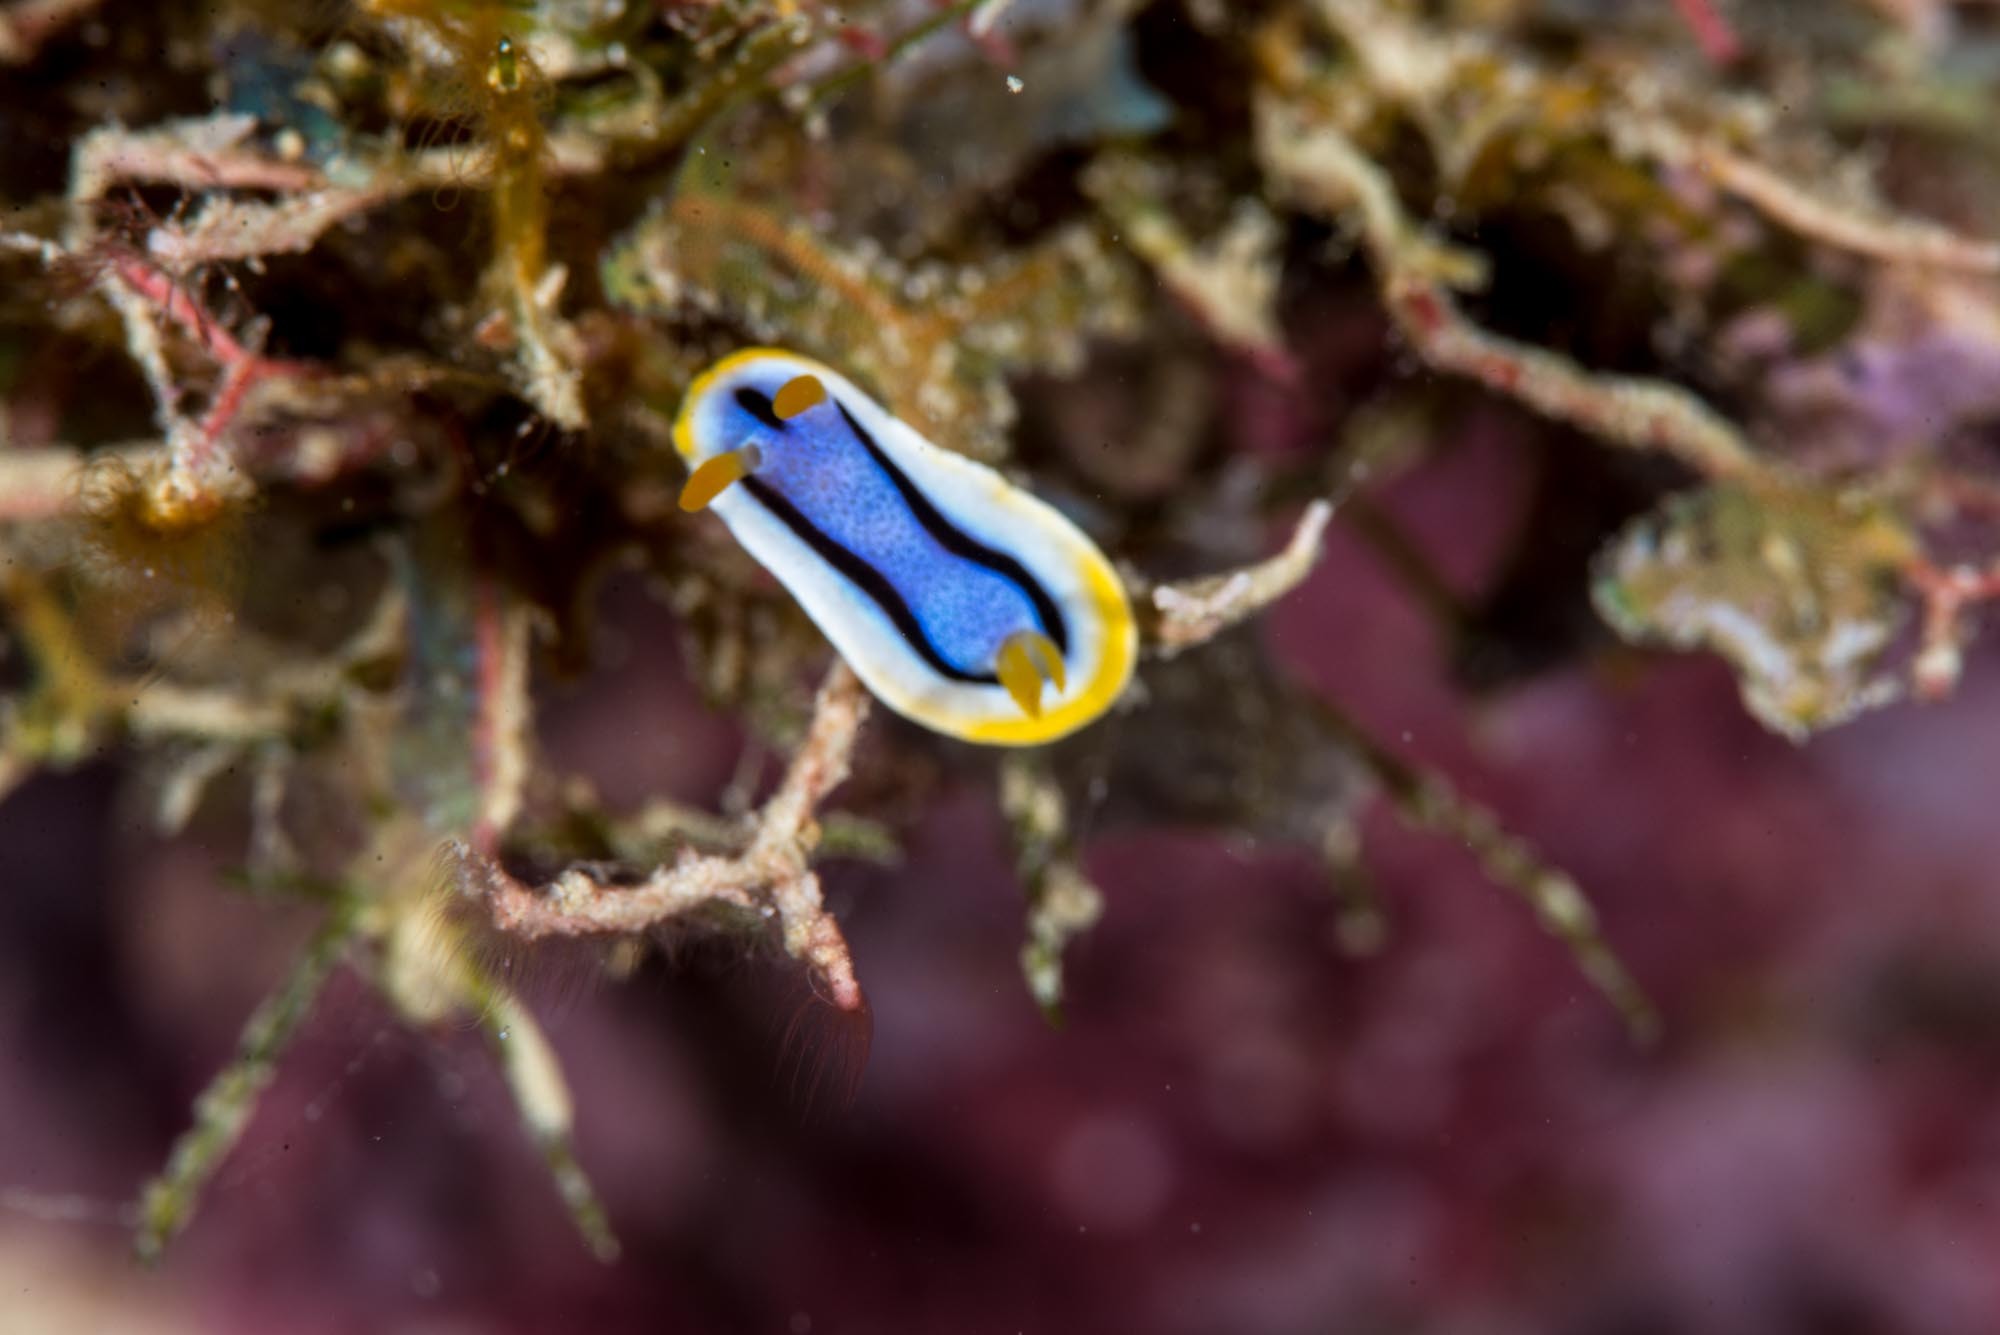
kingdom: Animalia
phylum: Mollusca
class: Gastropoda
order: Nudibranchia
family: Chromodorididae
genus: Chromodoris
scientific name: Chromodoris annae
